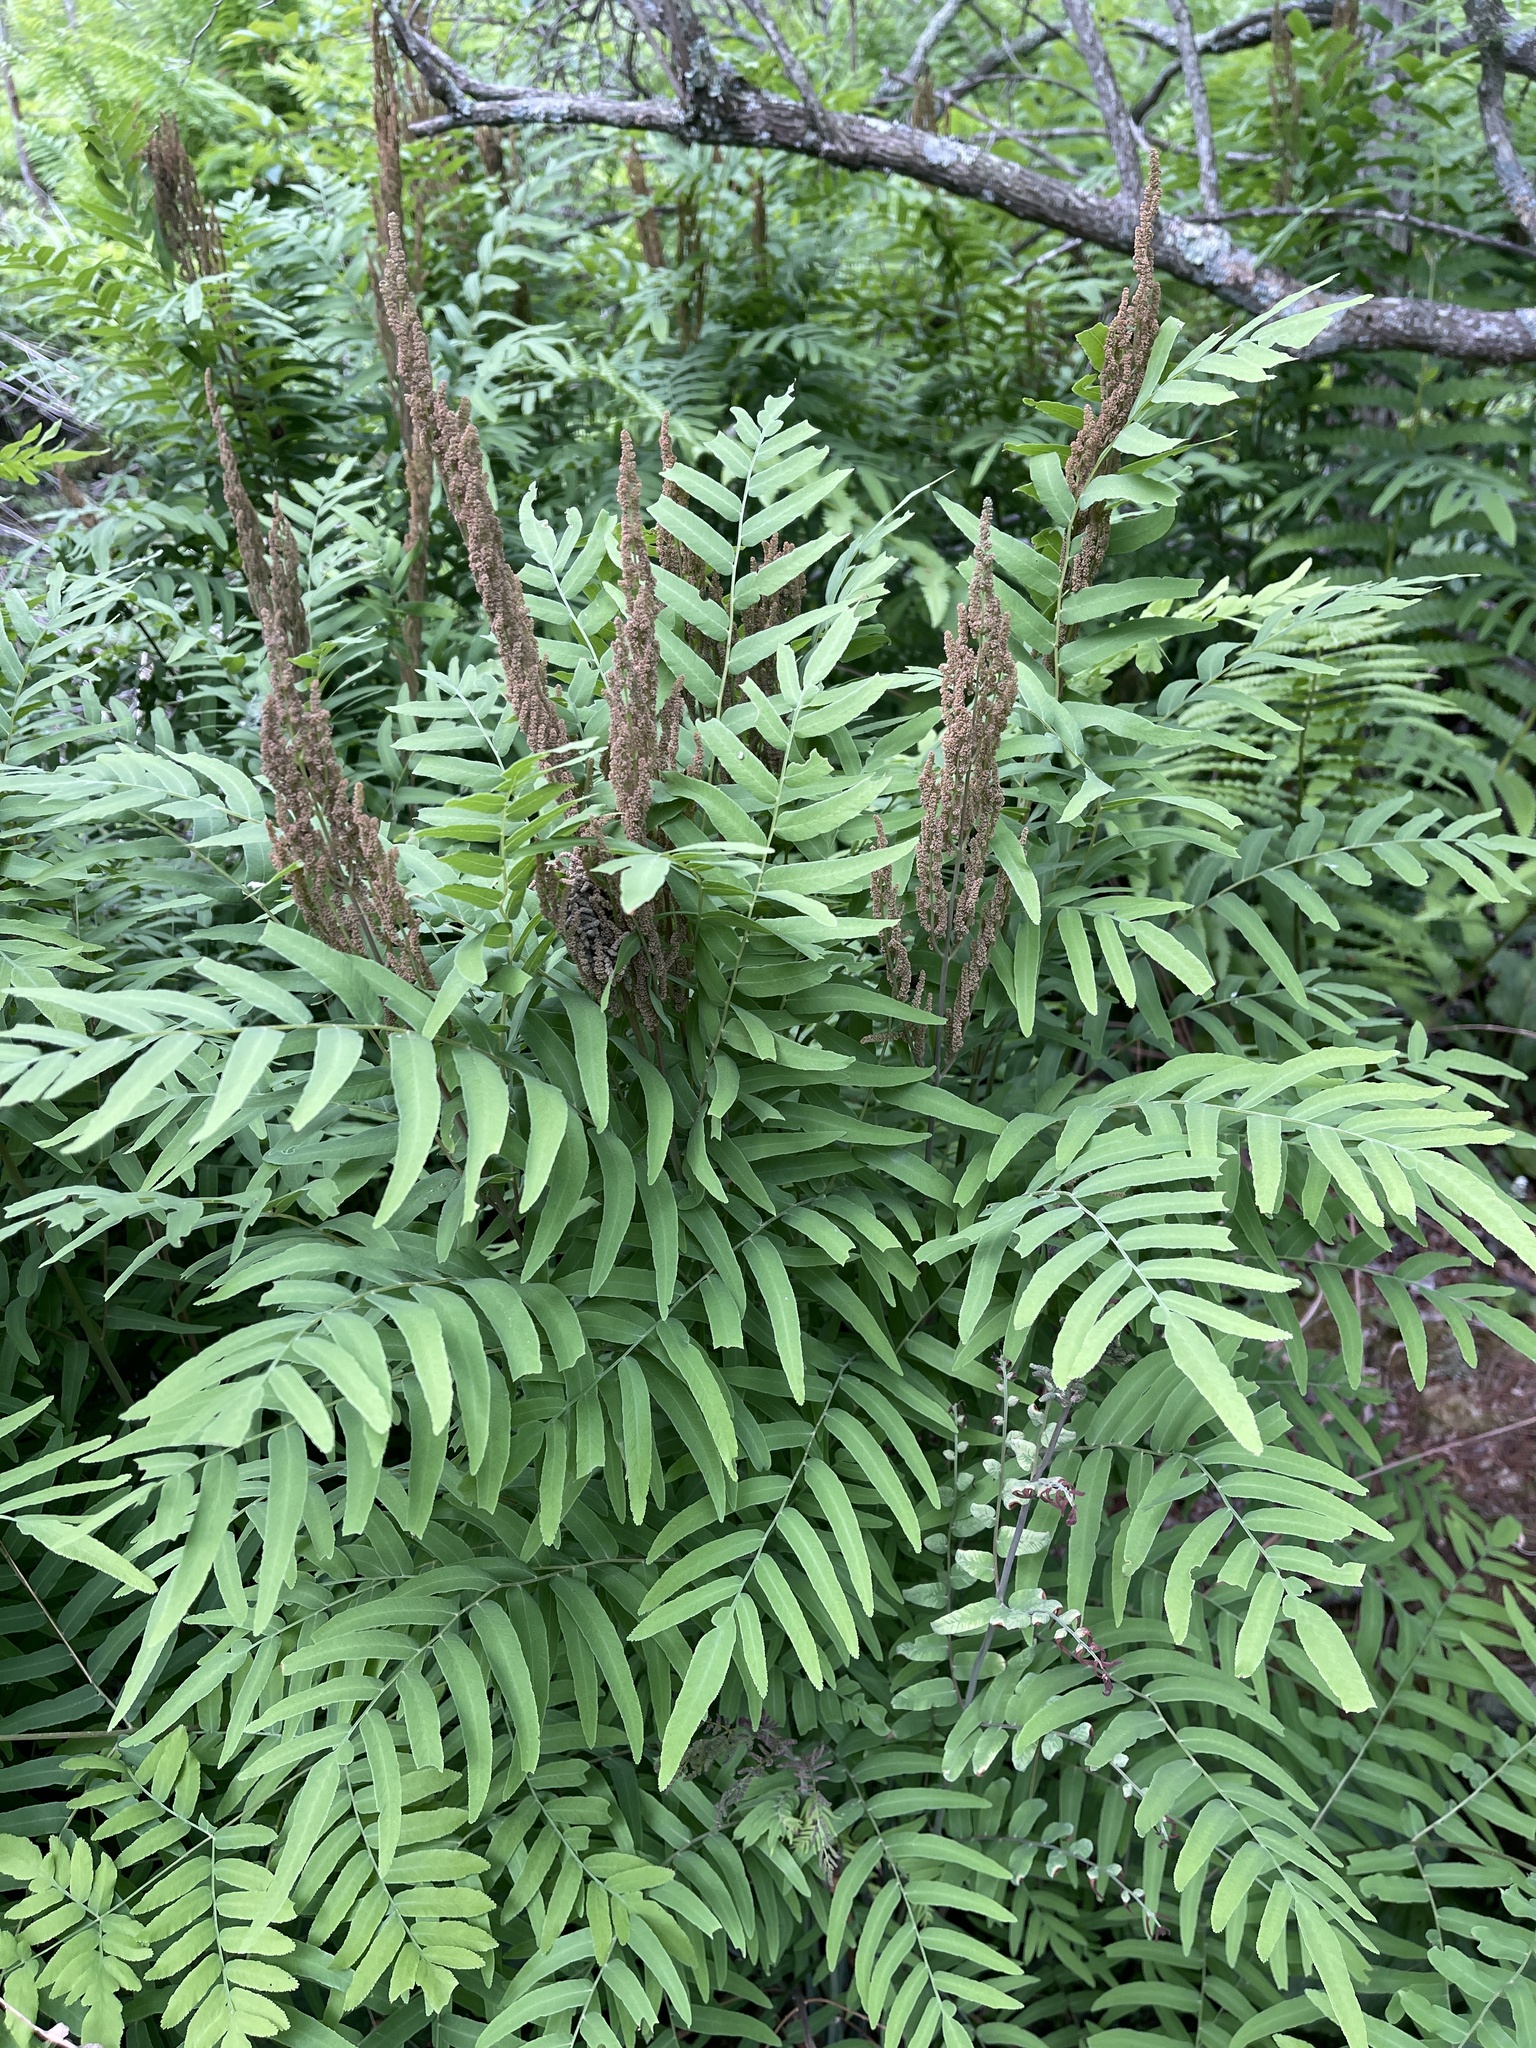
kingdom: Plantae
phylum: Tracheophyta
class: Polypodiopsida
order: Osmundales
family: Osmundaceae
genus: Osmunda
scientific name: Osmunda spectabilis
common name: American royal fern
